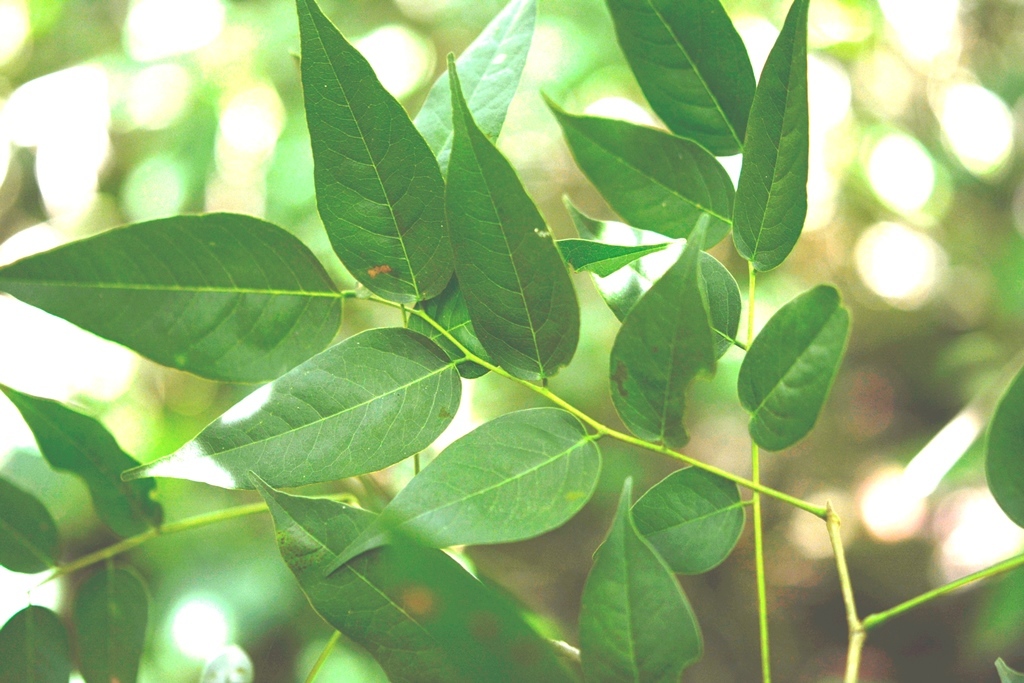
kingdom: Plantae
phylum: Tracheophyta
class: Magnoliopsida
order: Fabales
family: Fabaceae
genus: Dalbergia
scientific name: Dalbergia calycina
